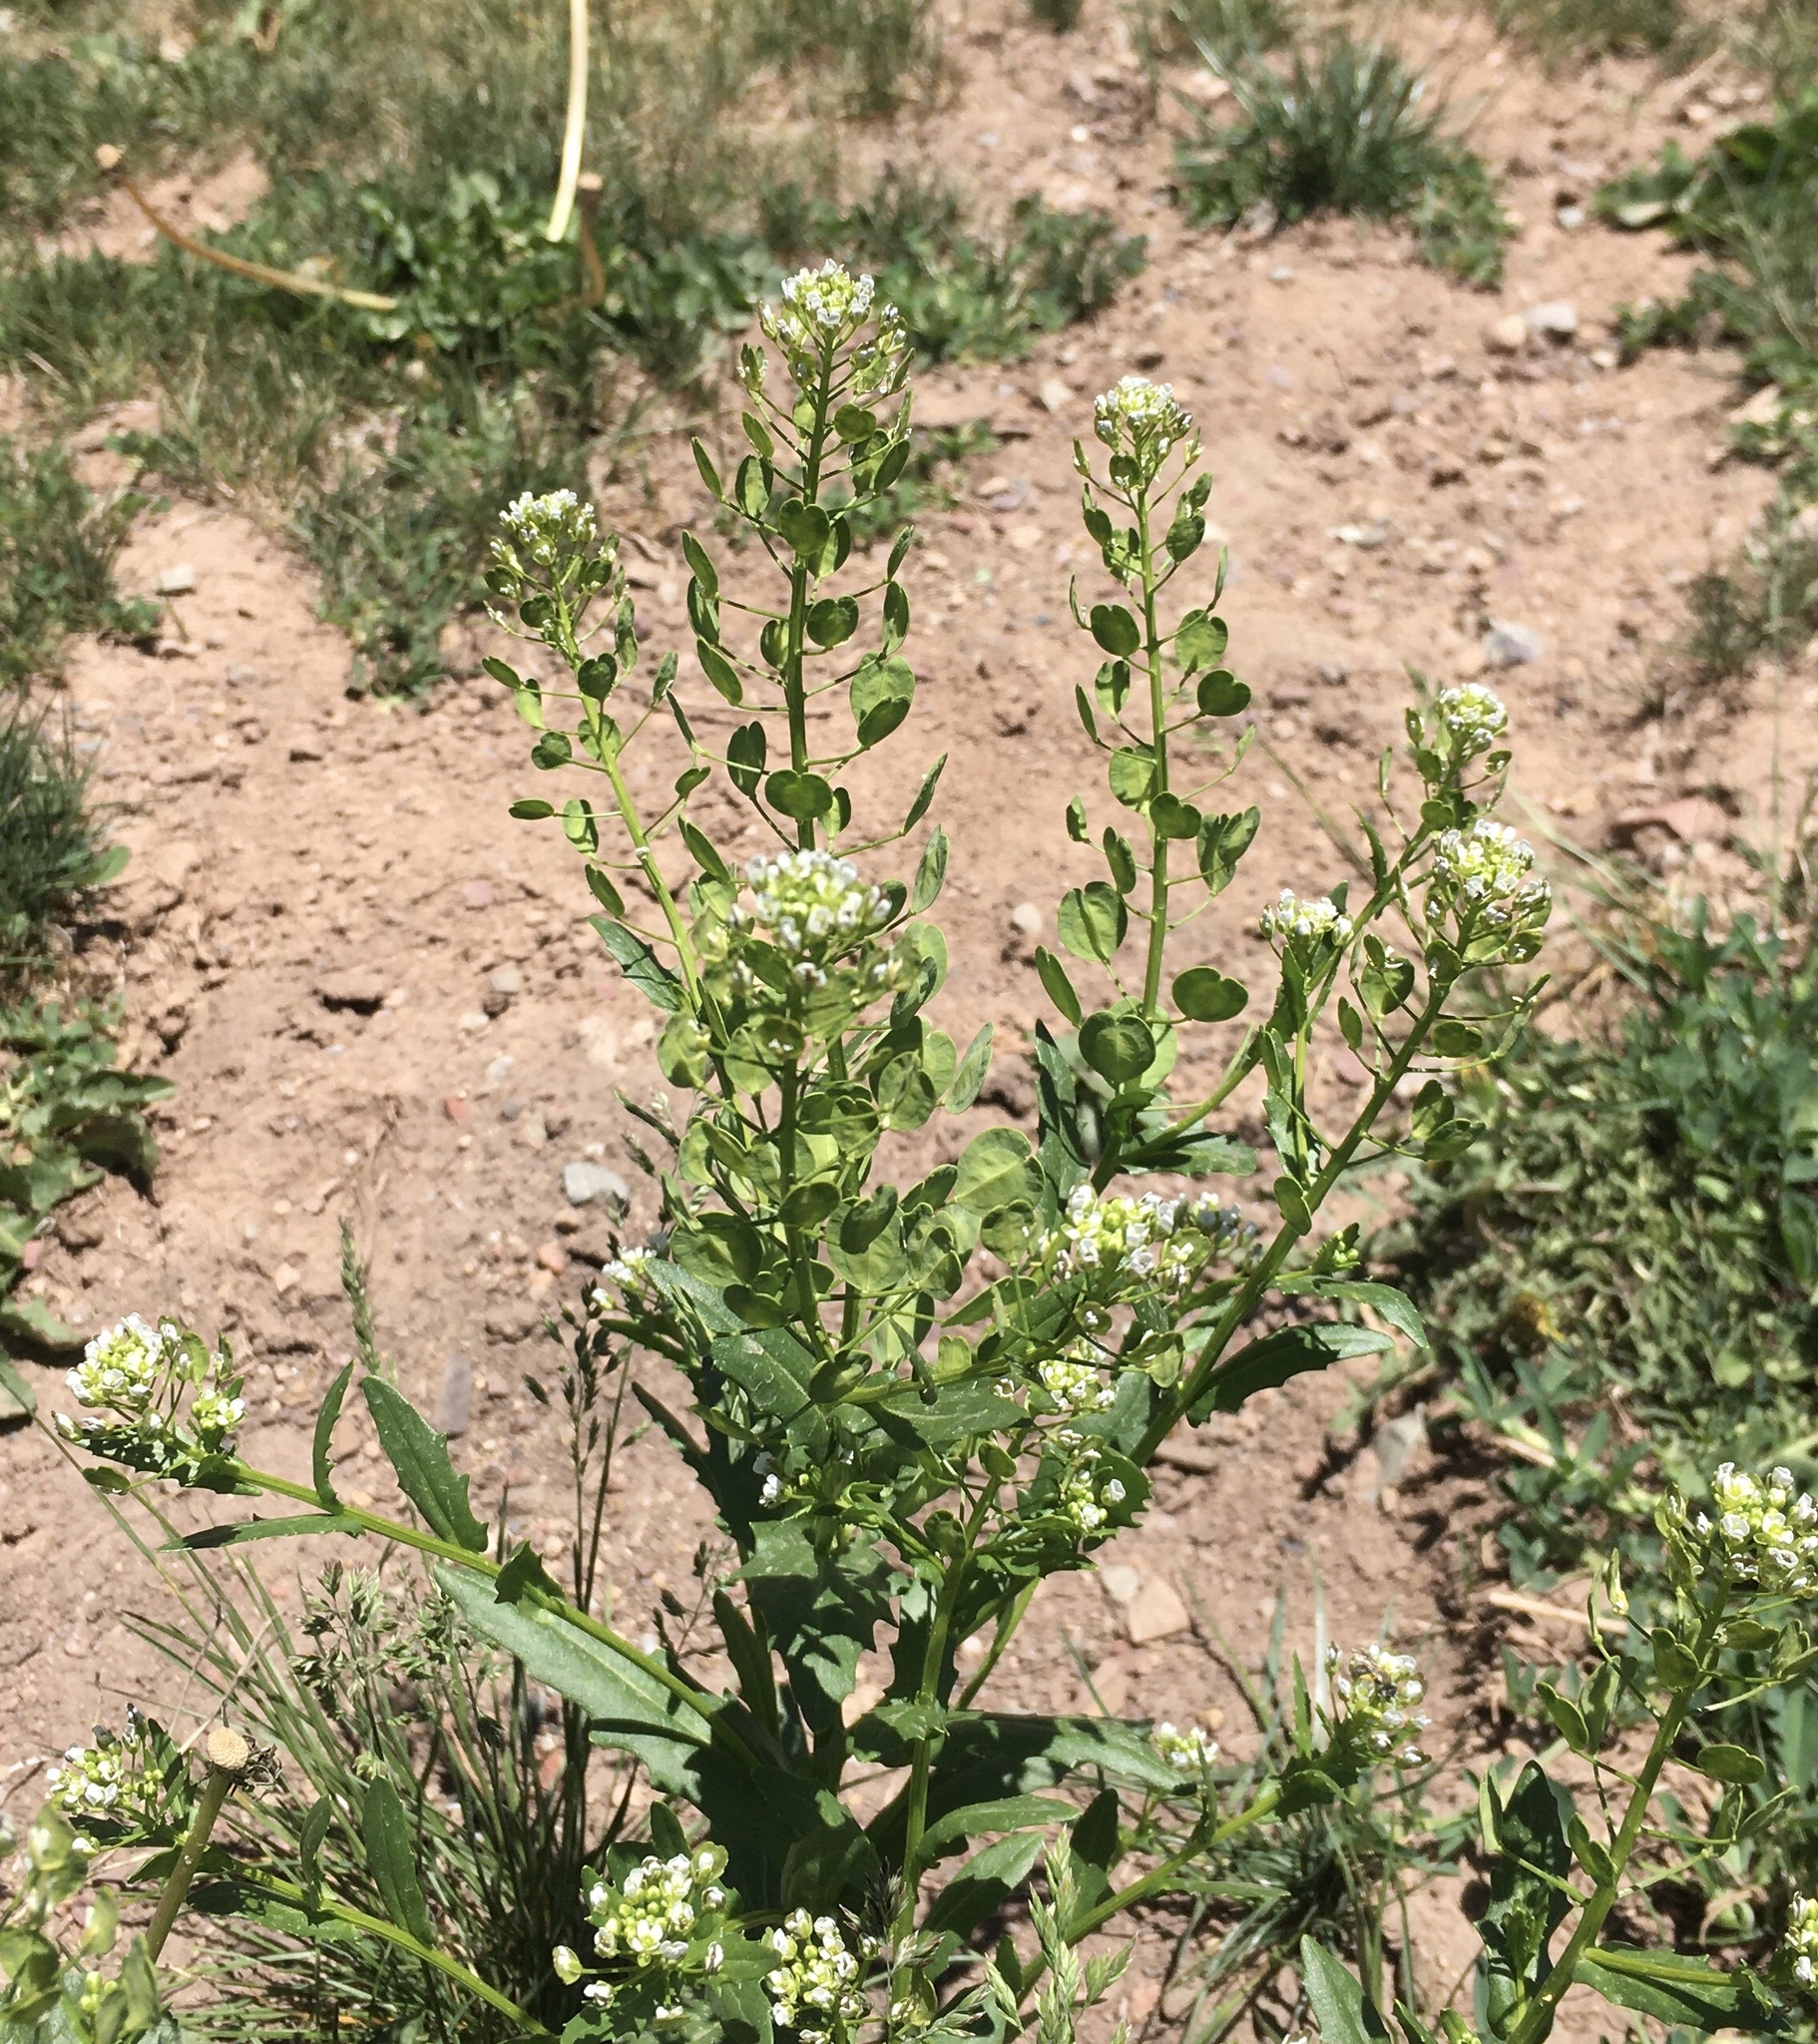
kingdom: Plantae
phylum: Tracheophyta
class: Magnoliopsida
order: Brassicales
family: Brassicaceae
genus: Thlaspi
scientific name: Thlaspi arvense
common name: Field pennycress
